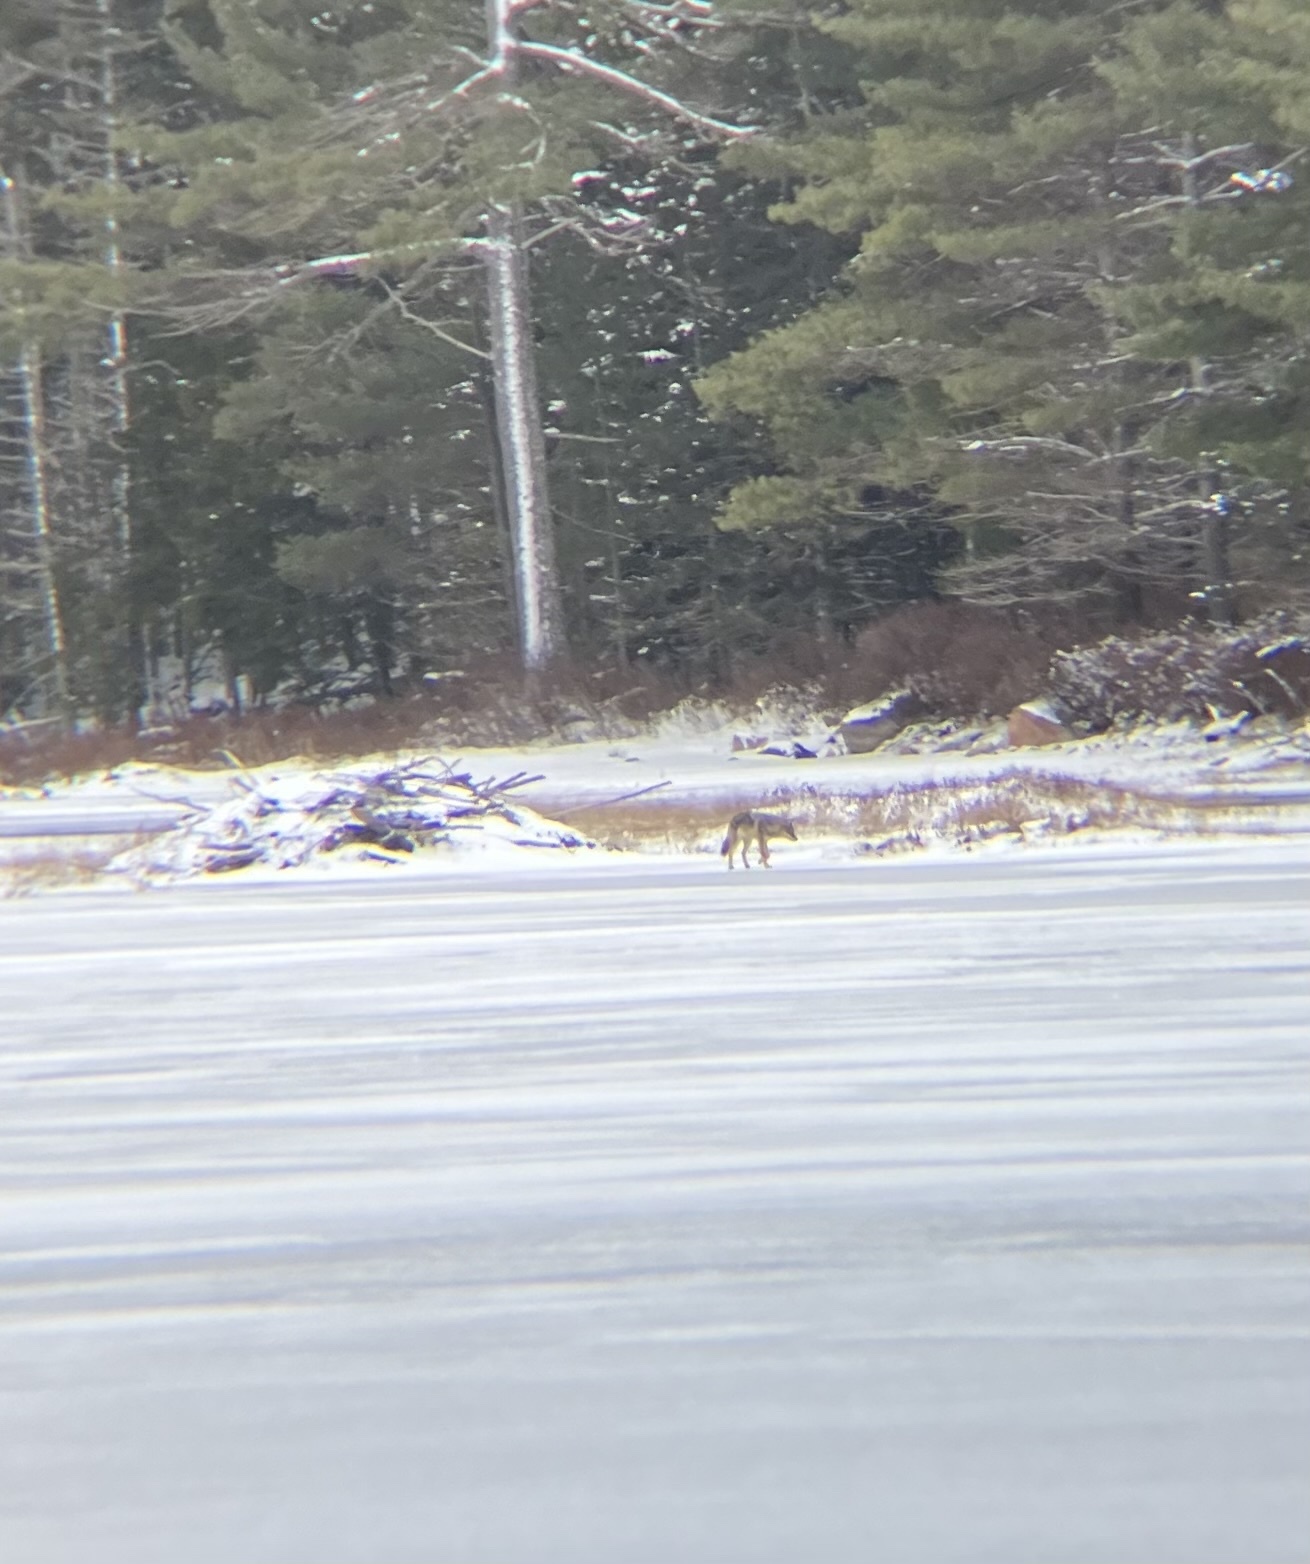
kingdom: Animalia
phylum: Chordata
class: Mammalia
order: Carnivora
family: Canidae
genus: Canis
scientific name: Canis latrans
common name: Coyote
